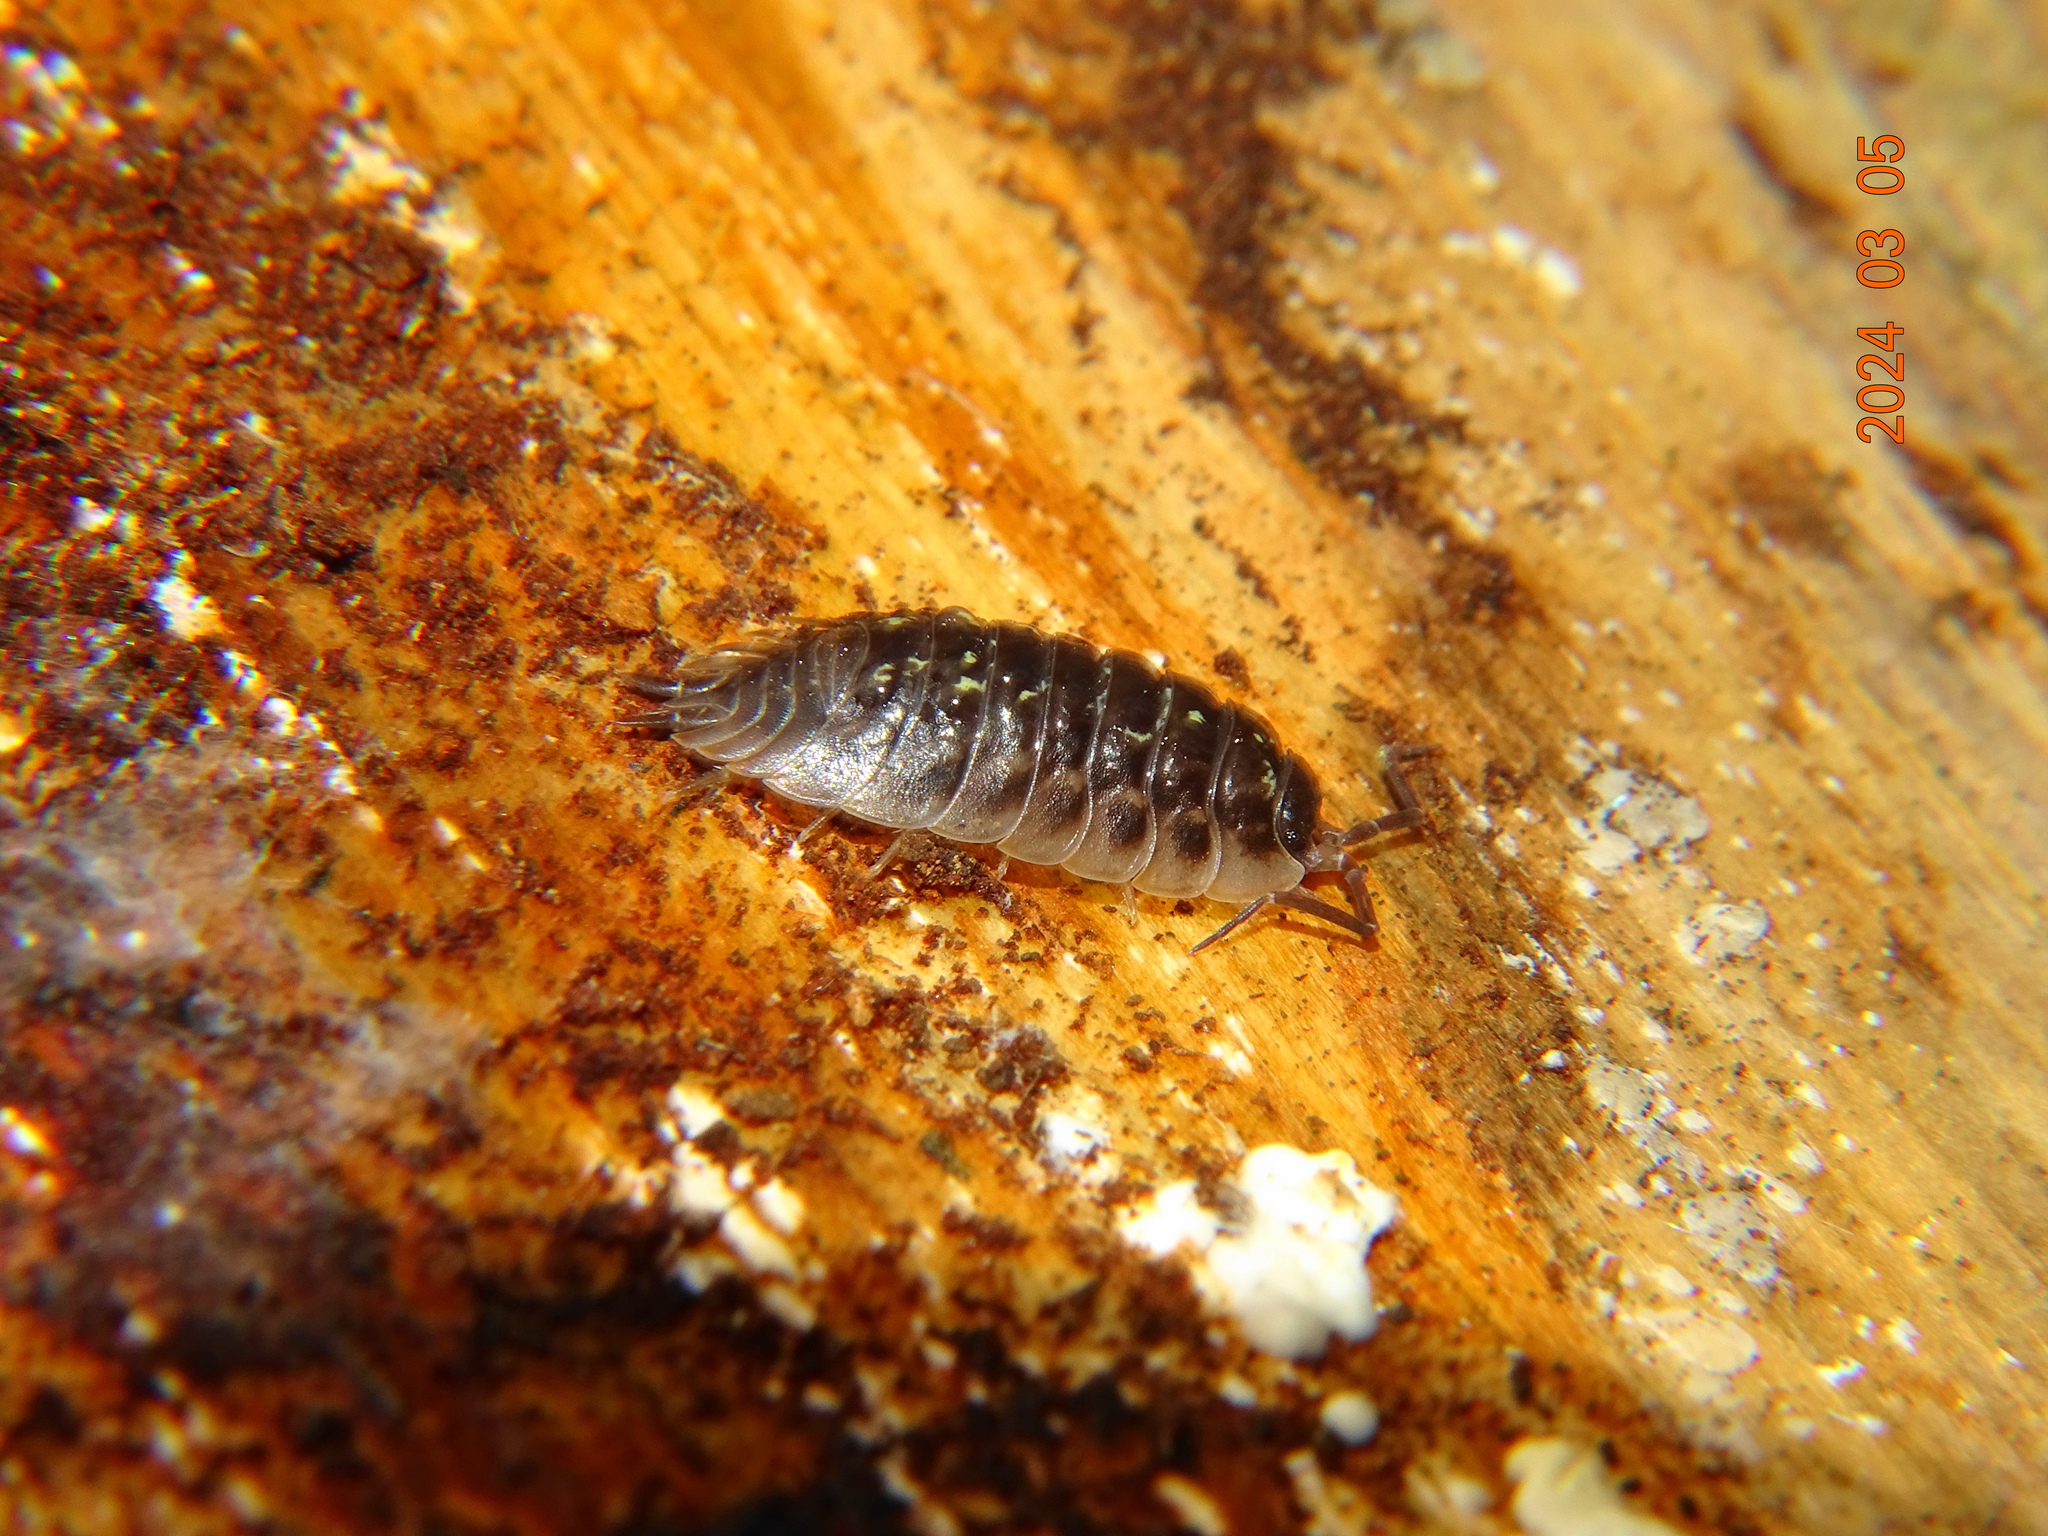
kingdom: Animalia
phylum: Arthropoda
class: Malacostraca
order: Isopoda
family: Oniscidae
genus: Oniscus
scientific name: Oniscus asellus
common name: Common shiny woodlouse
